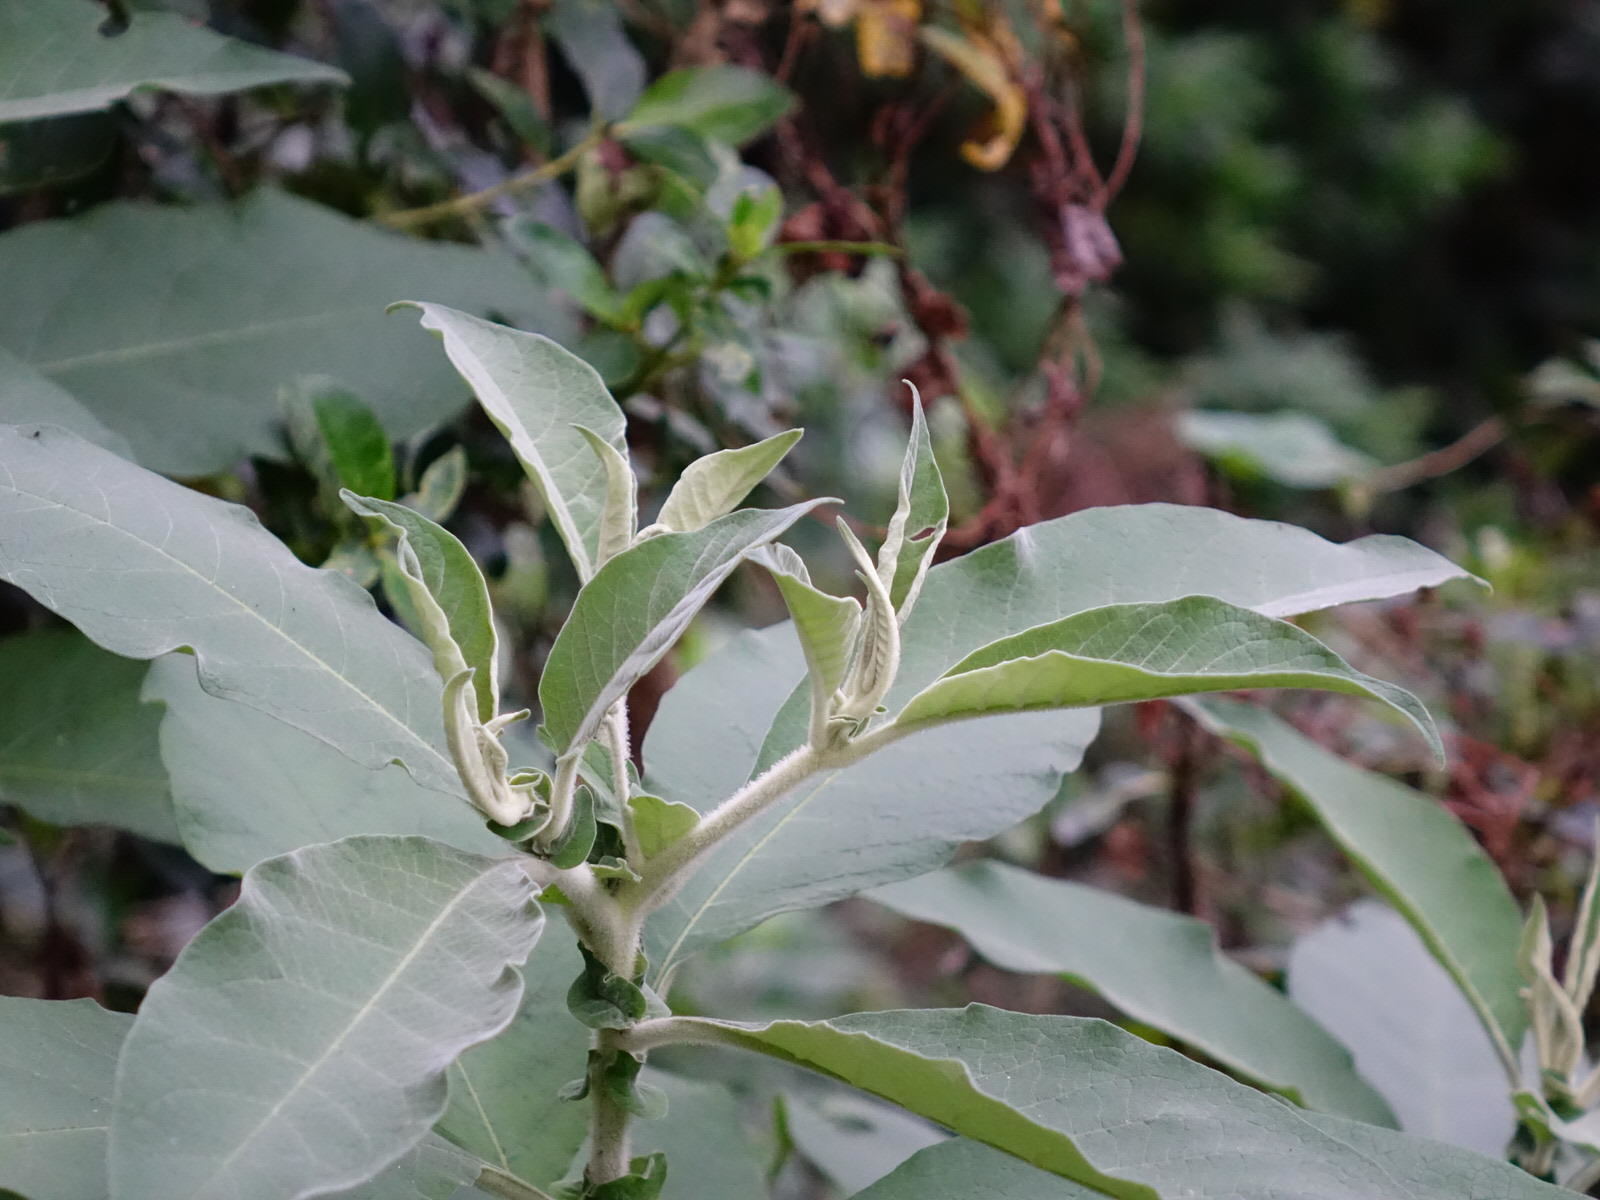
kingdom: Plantae
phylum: Tracheophyta
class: Magnoliopsida
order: Solanales
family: Solanaceae
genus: Solanum
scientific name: Solanum mauritianum
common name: Earleaf nightshade
